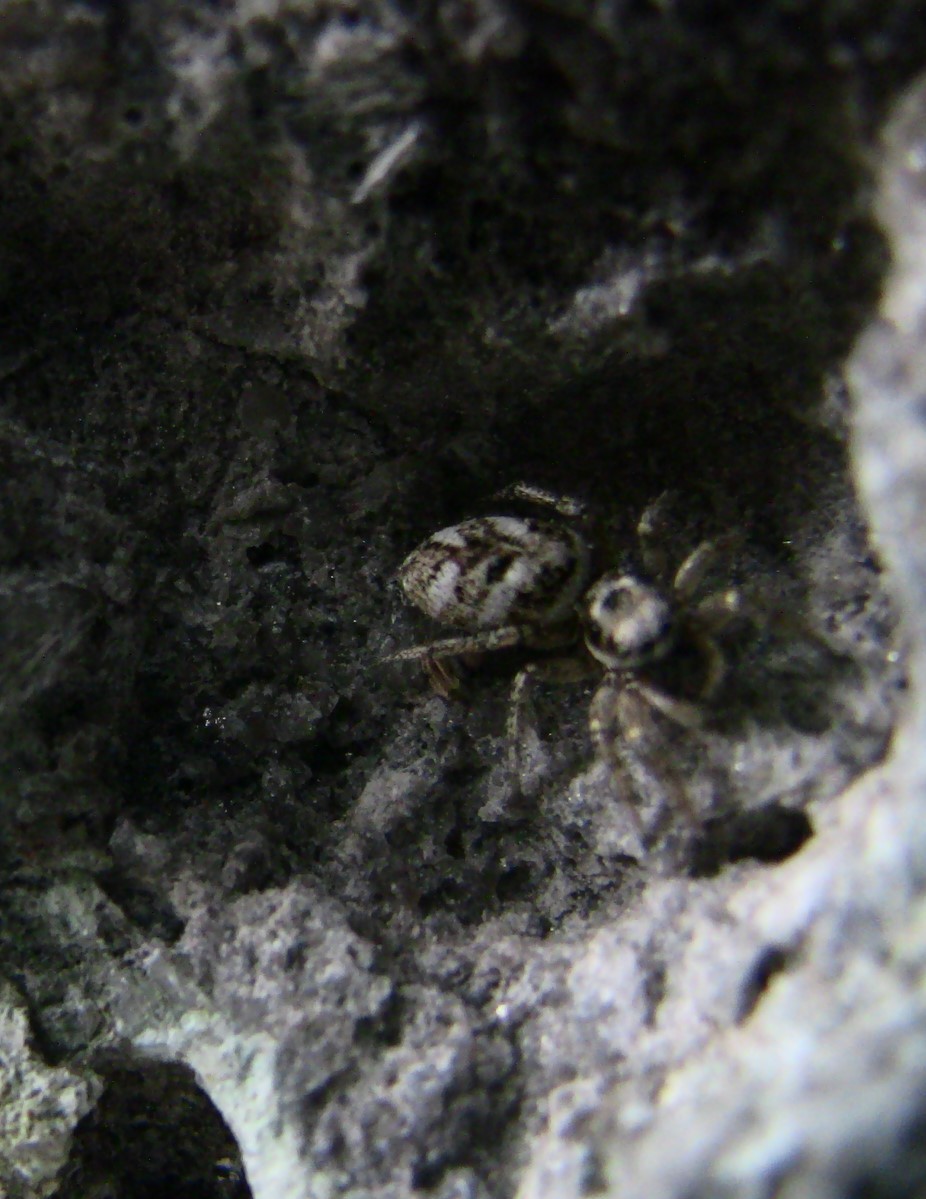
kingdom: Animalia
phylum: Arthropoda
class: Arachnida
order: Araneae
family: Salticidae
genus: Salticus
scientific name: Salticus scenicus
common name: Zebra jumper
